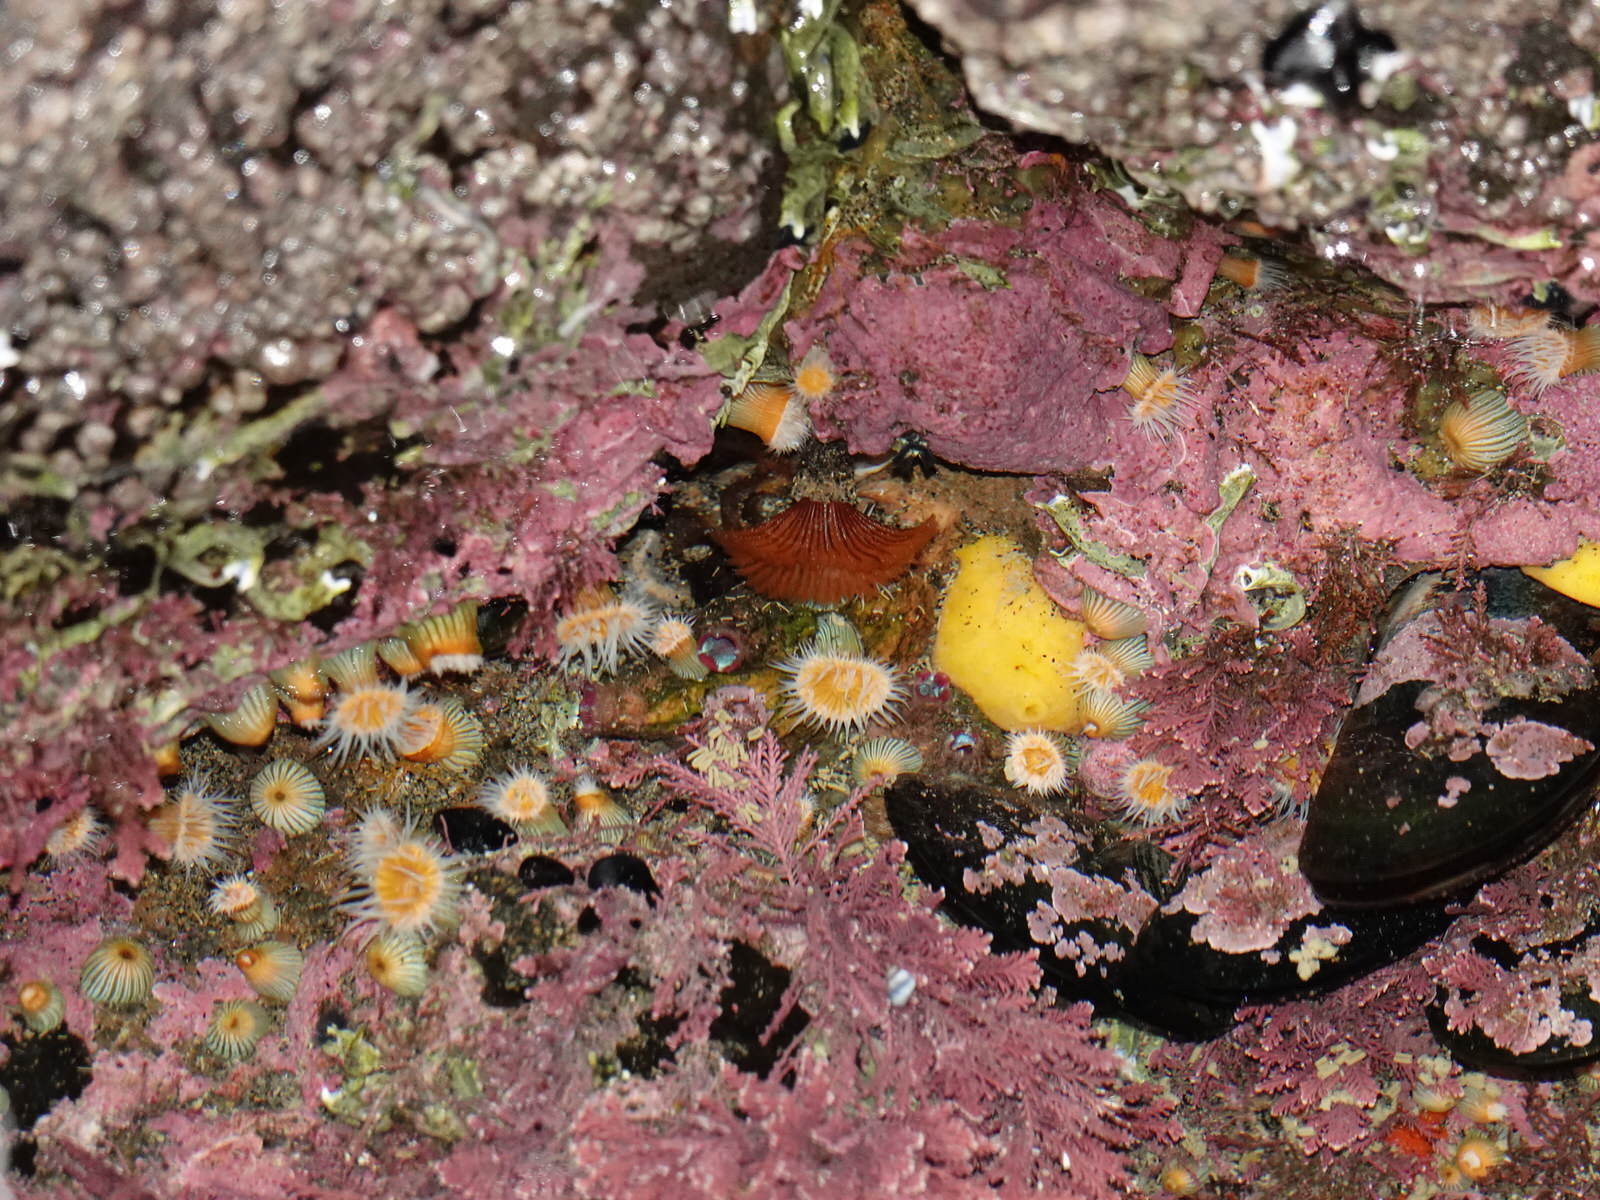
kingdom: Animalia
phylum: Cnidaria
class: Anthozoa
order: Actiniaria
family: Sagartiidae
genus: Anthothoe
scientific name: Anthothoe albocincta
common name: Orange striped anemone
